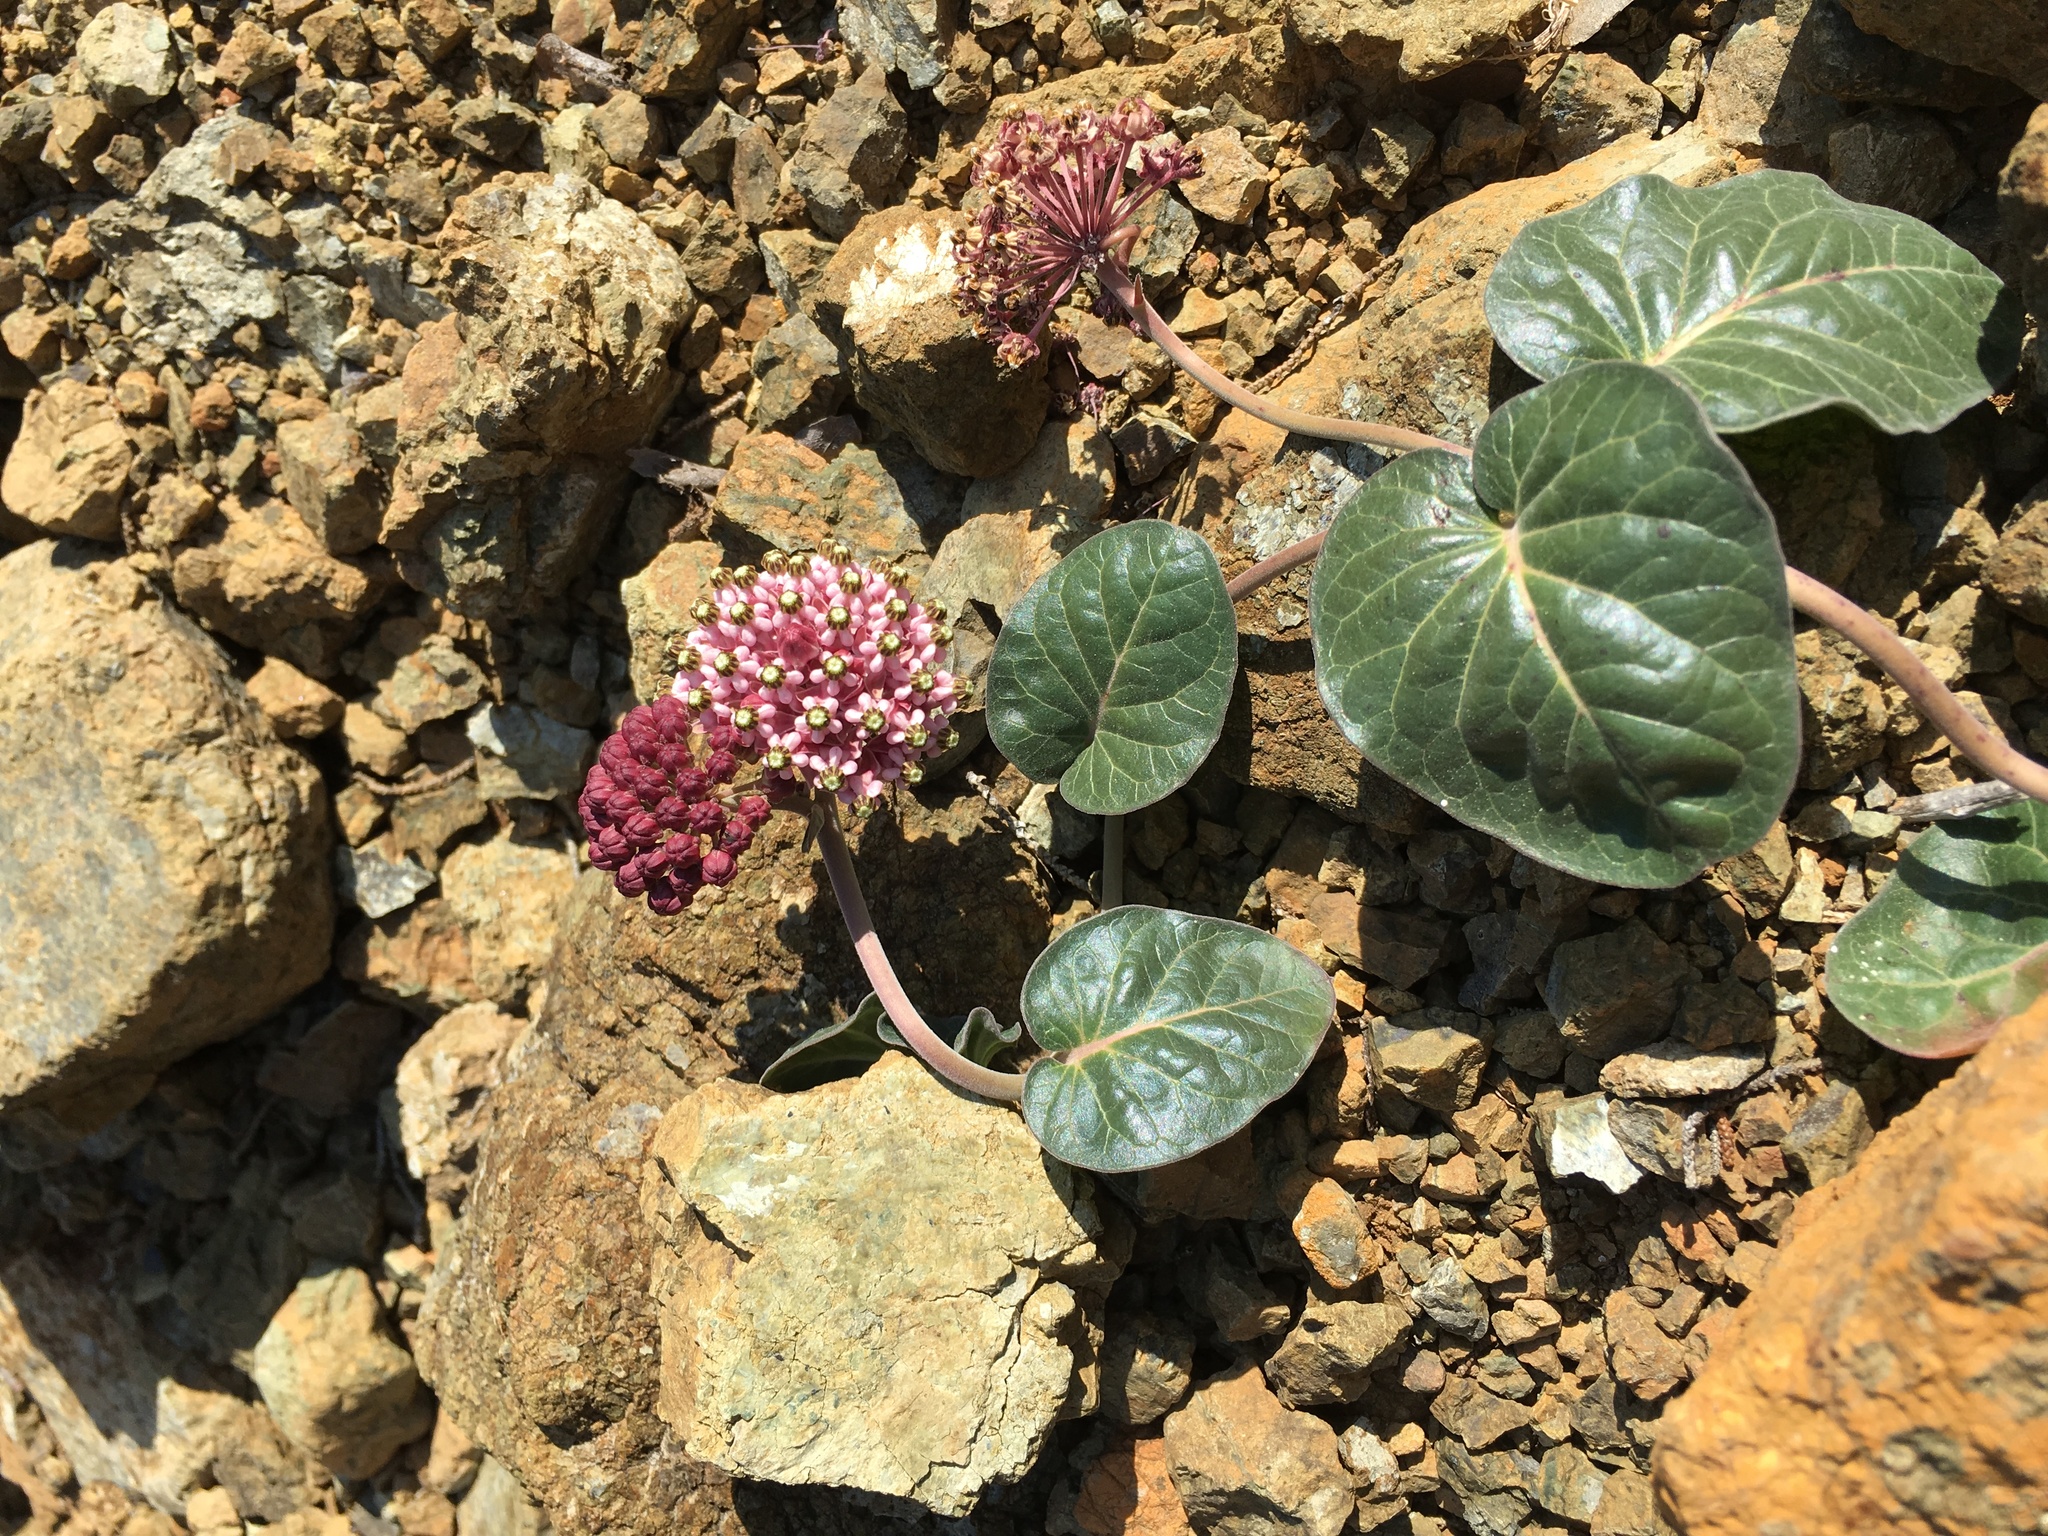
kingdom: Plantae
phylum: Tracheophyta
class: Magnoliopsida
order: Gentianales
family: Apocynaceae
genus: Asclepias
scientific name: Asclepias solanoana
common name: Serpentine milkweed
